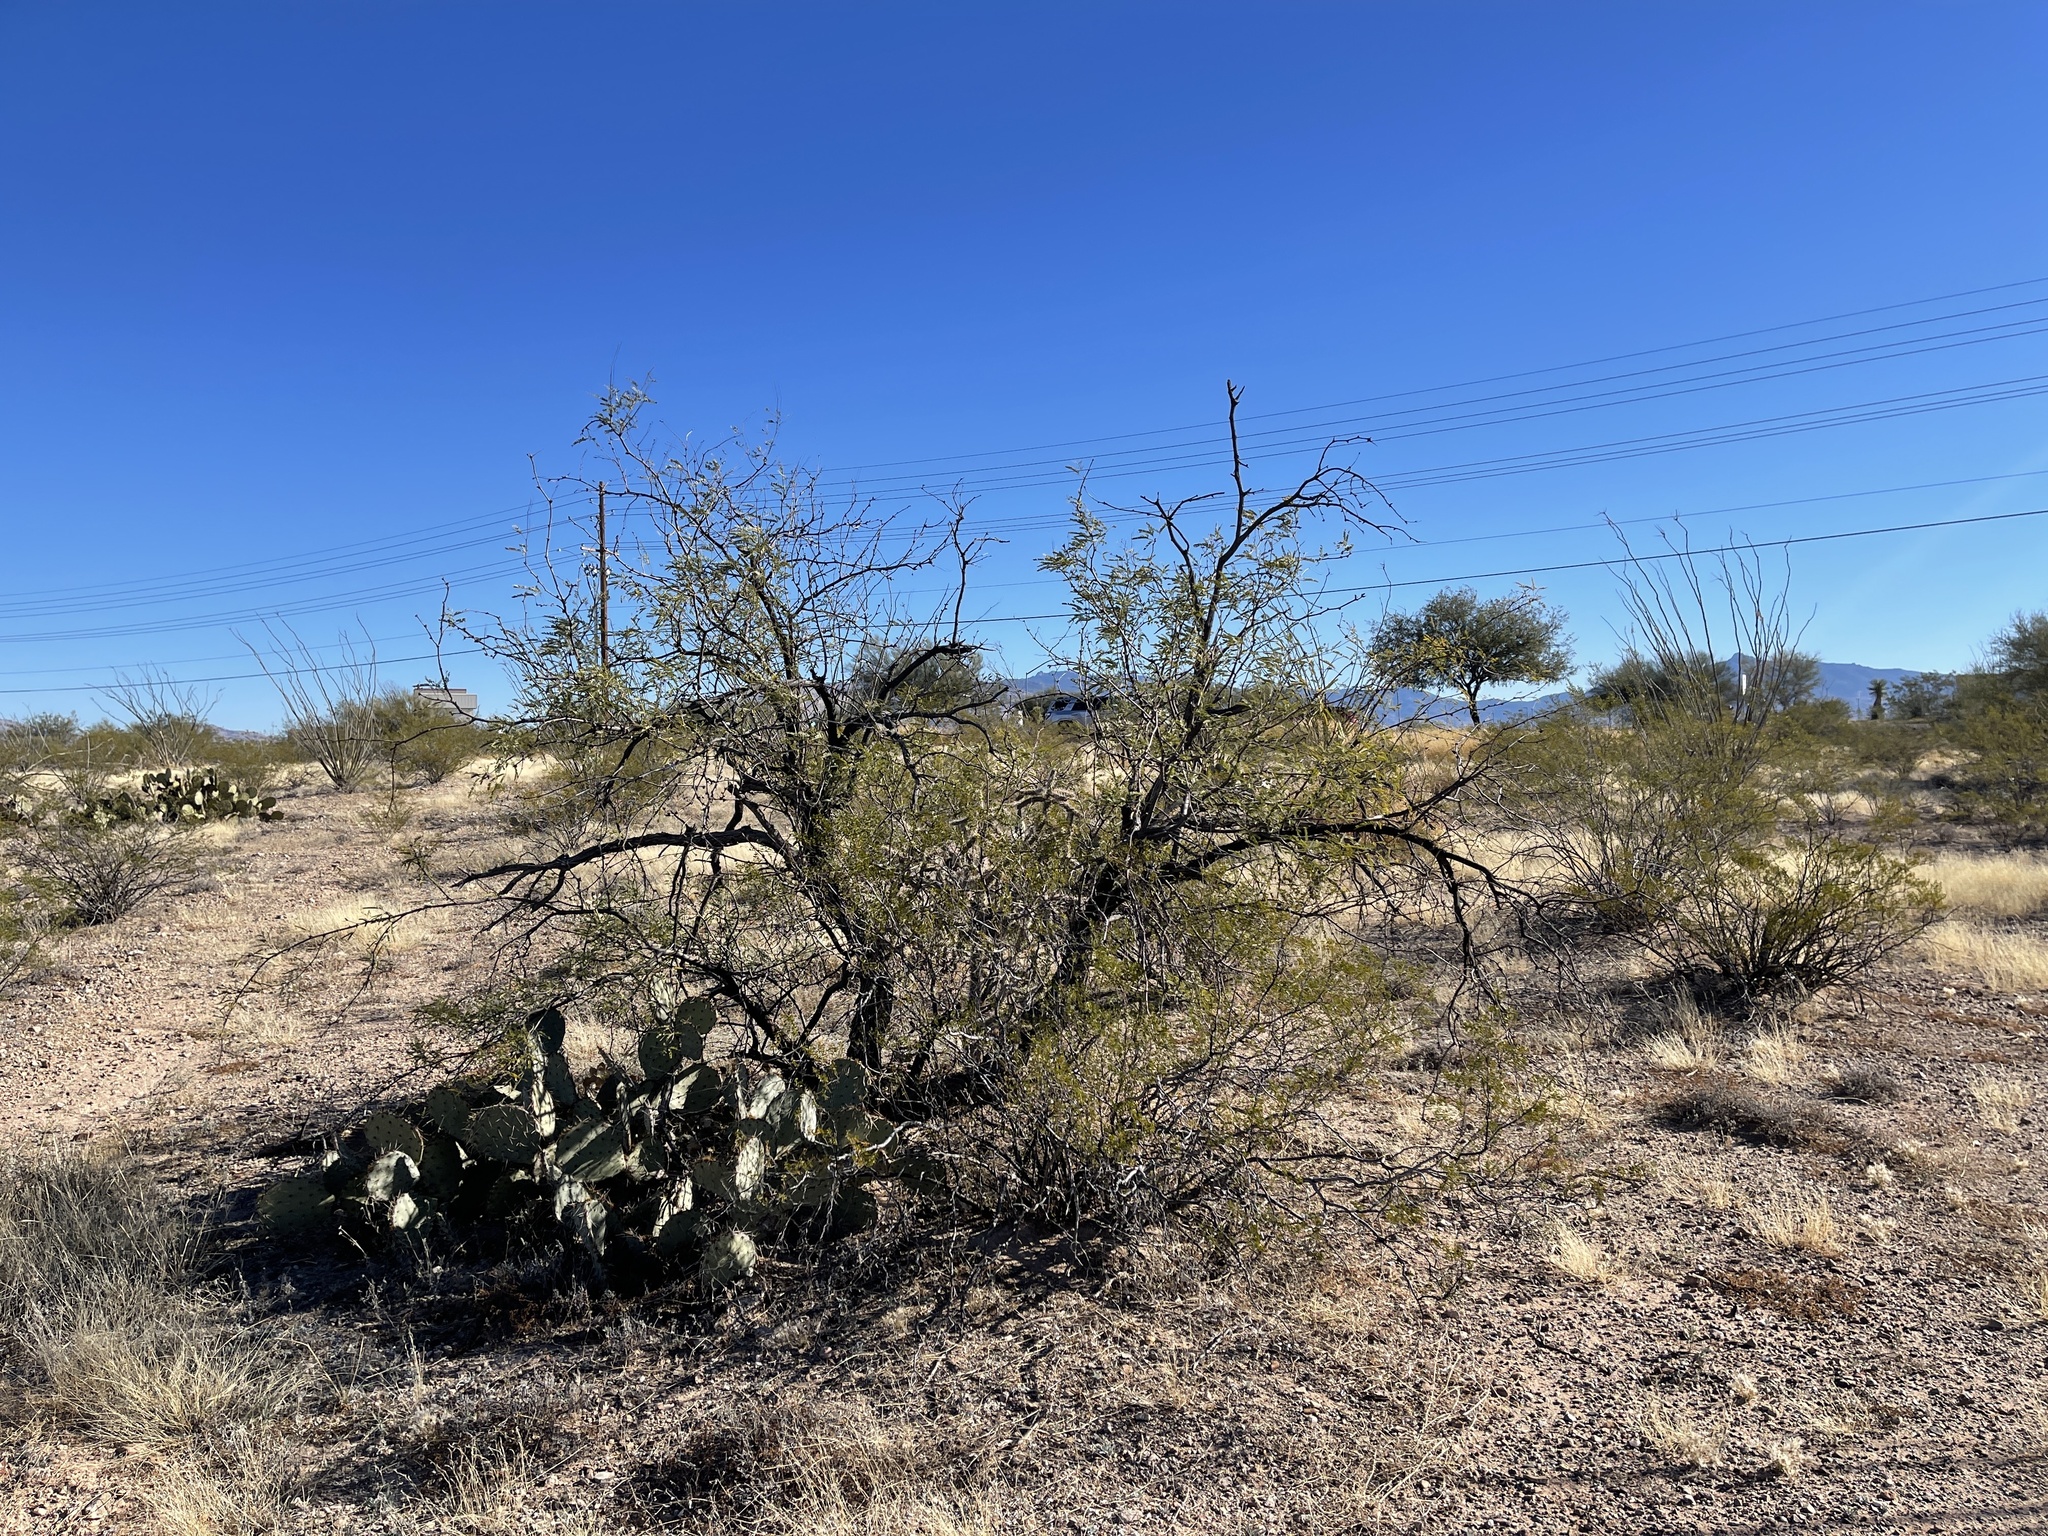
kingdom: Plantae
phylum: Tracheophyta
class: Magnoliopsida
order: Fabales
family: Fabaceae
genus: Prosopis
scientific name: Prosopis velutina
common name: Velvet mesquite
